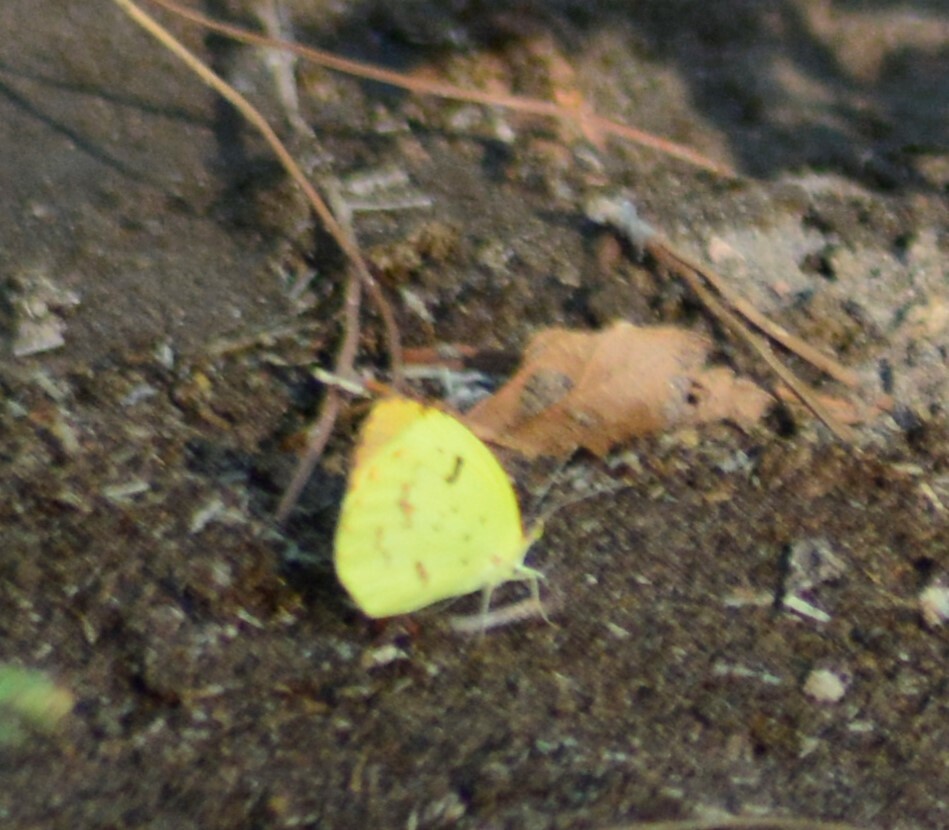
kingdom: Animalia
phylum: Arthropoda
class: Insecta
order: Lepidoptera
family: Pieridae
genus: Teriocolias
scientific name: Teriocolias
